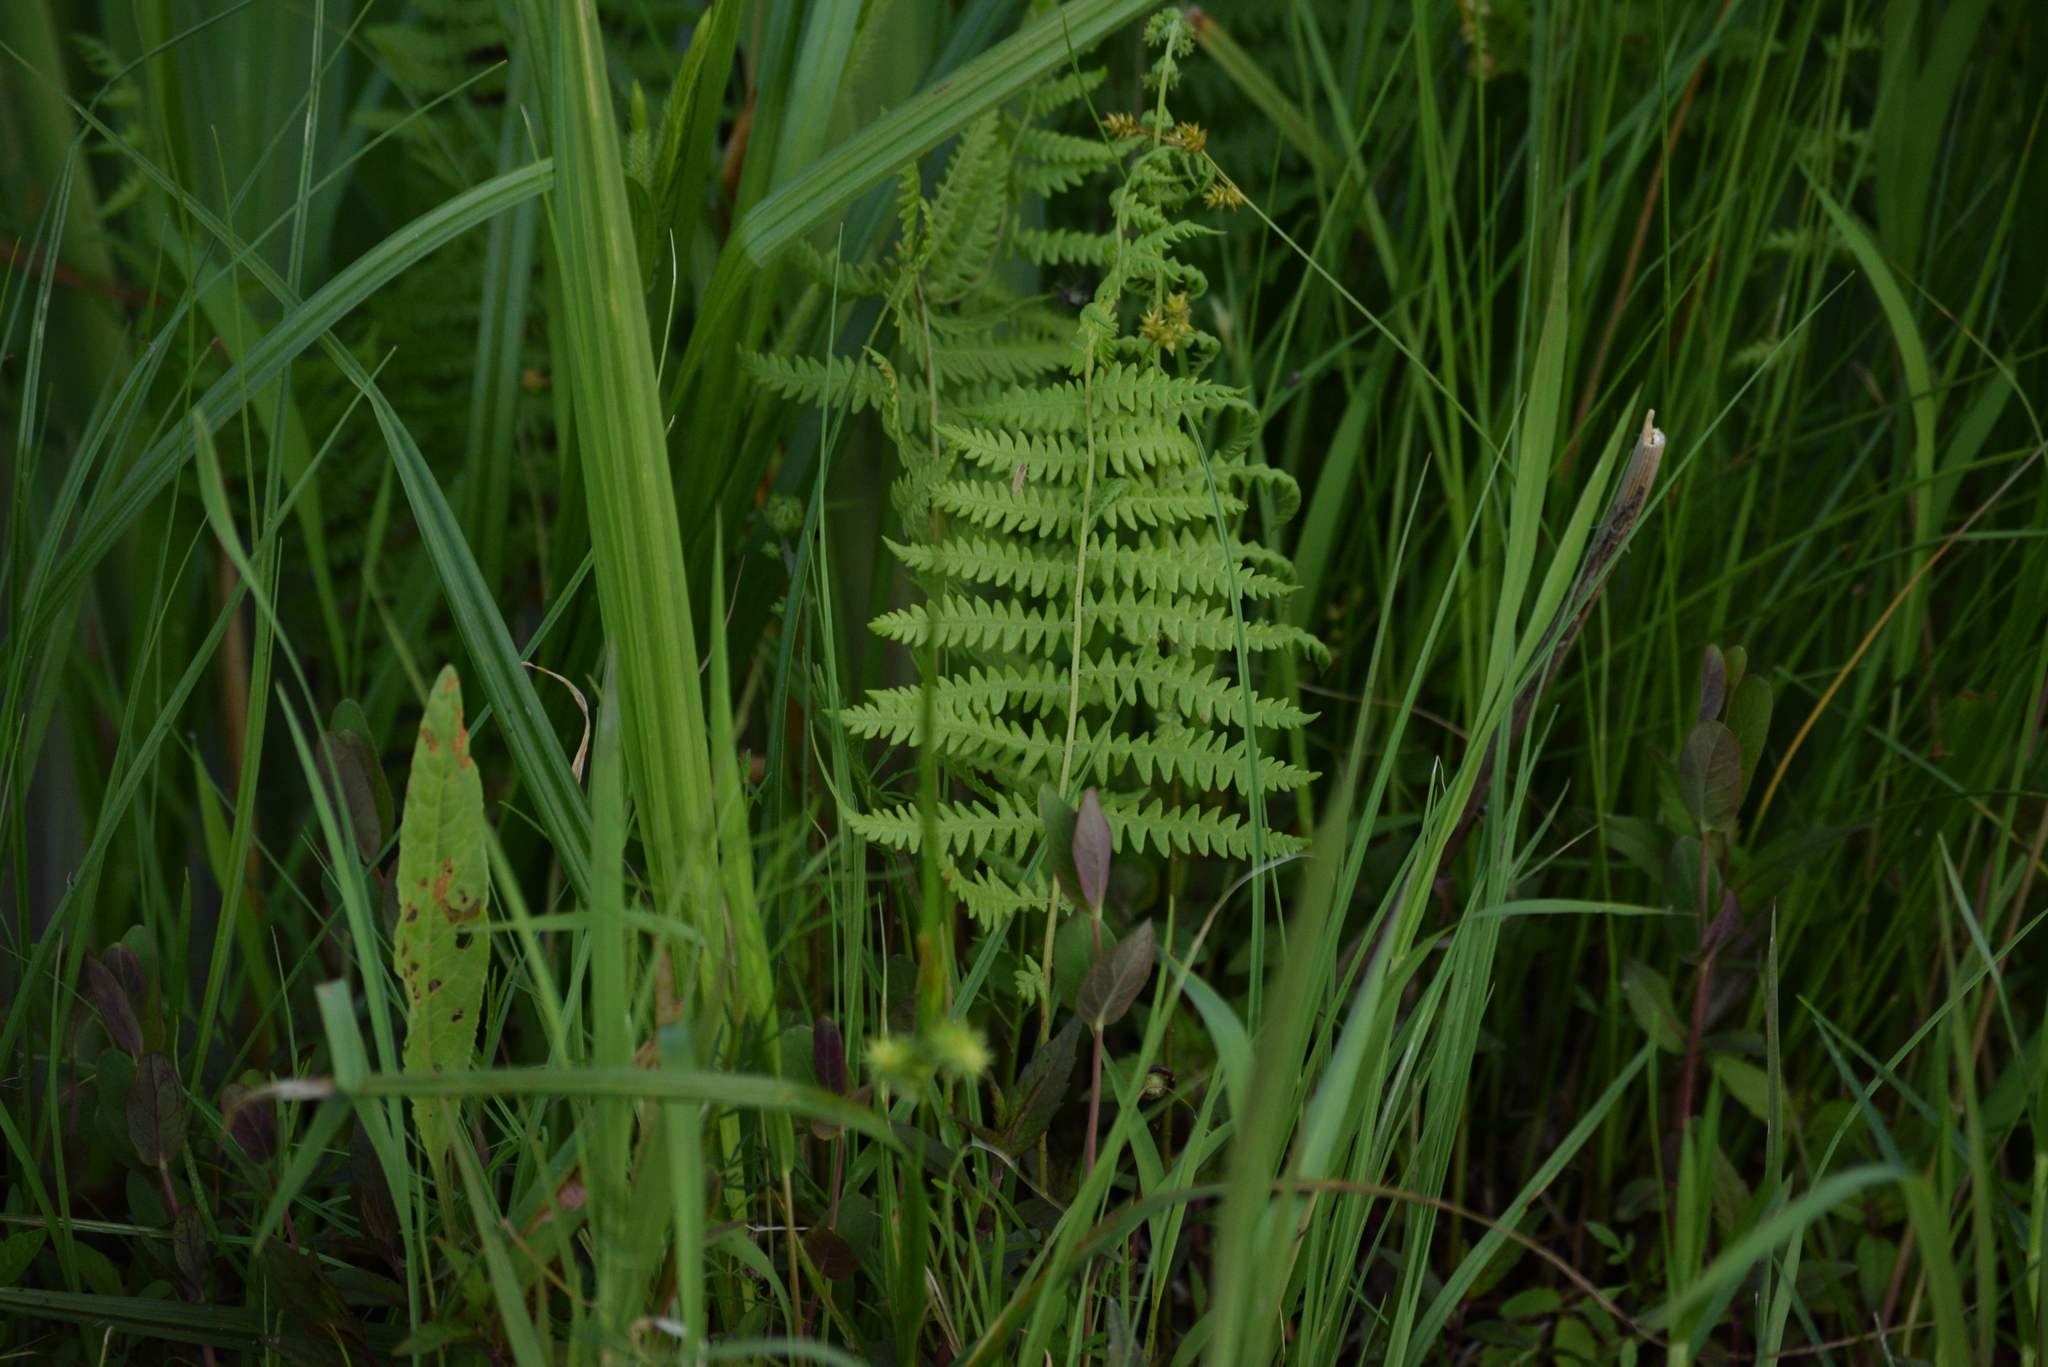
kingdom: Plantae
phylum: Tracheophyta
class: Polypodiopsida
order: Polypodiales
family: Thelypteridaceae
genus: Thelypteris
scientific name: Thelypteris palustris
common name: Marsh fern
